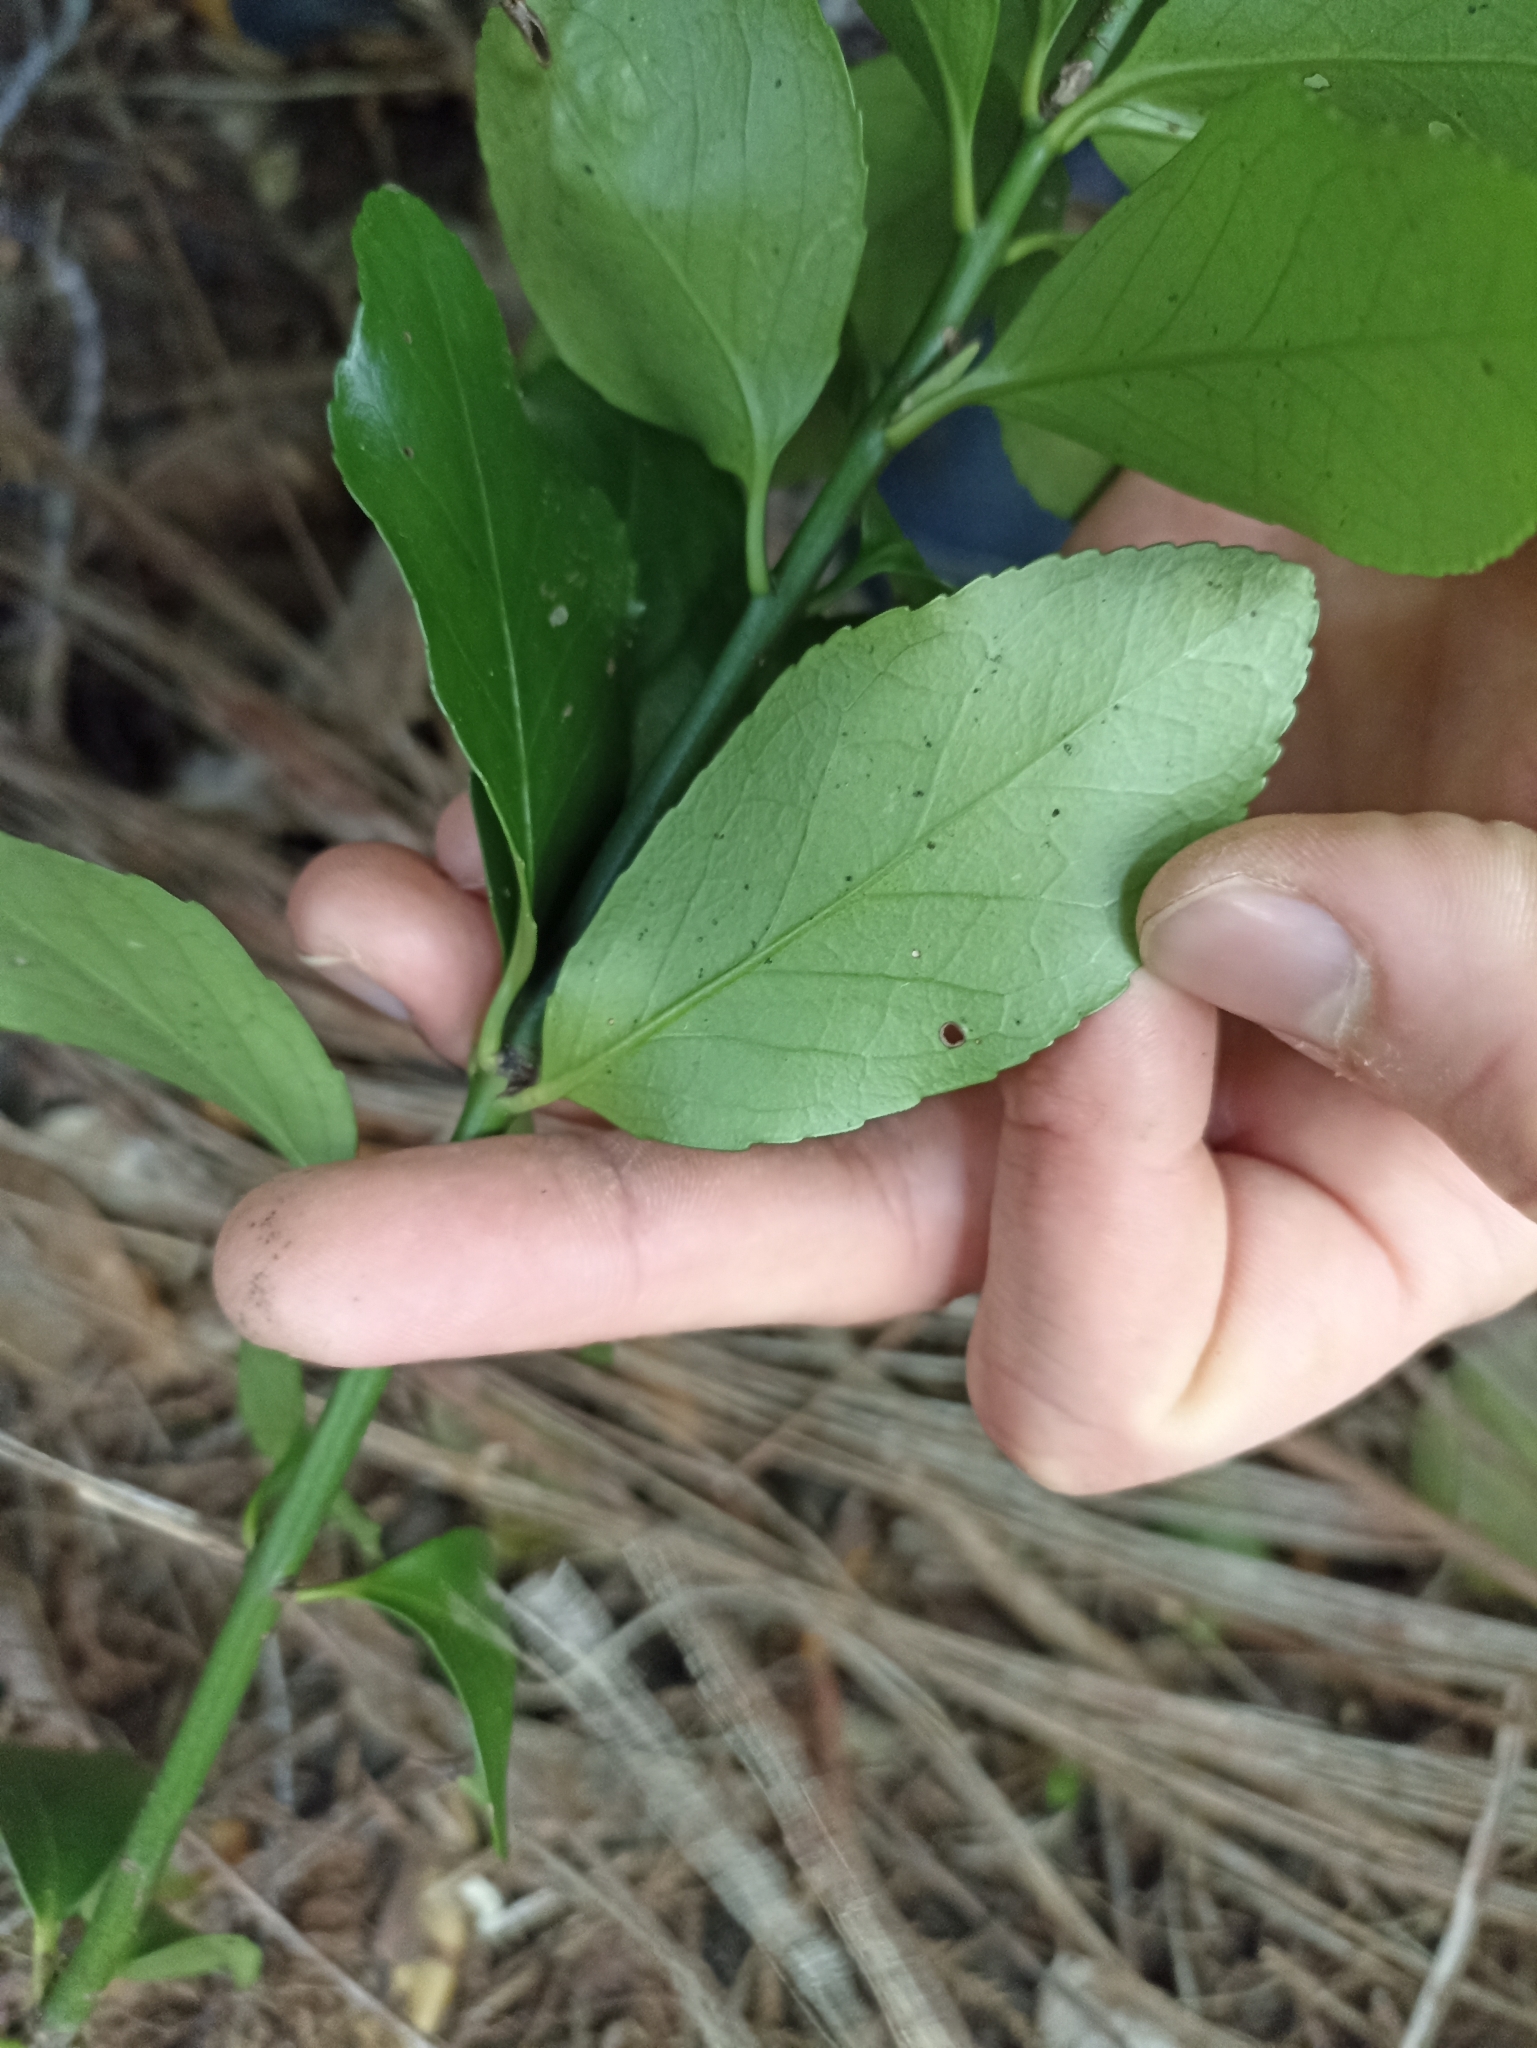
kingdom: Plantae
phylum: Tracheophyta
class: Magnoliopsida
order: Celastrales
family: Celastraceae
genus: Euonymus
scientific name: Euonymus japonicus
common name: Japanese spindletree
